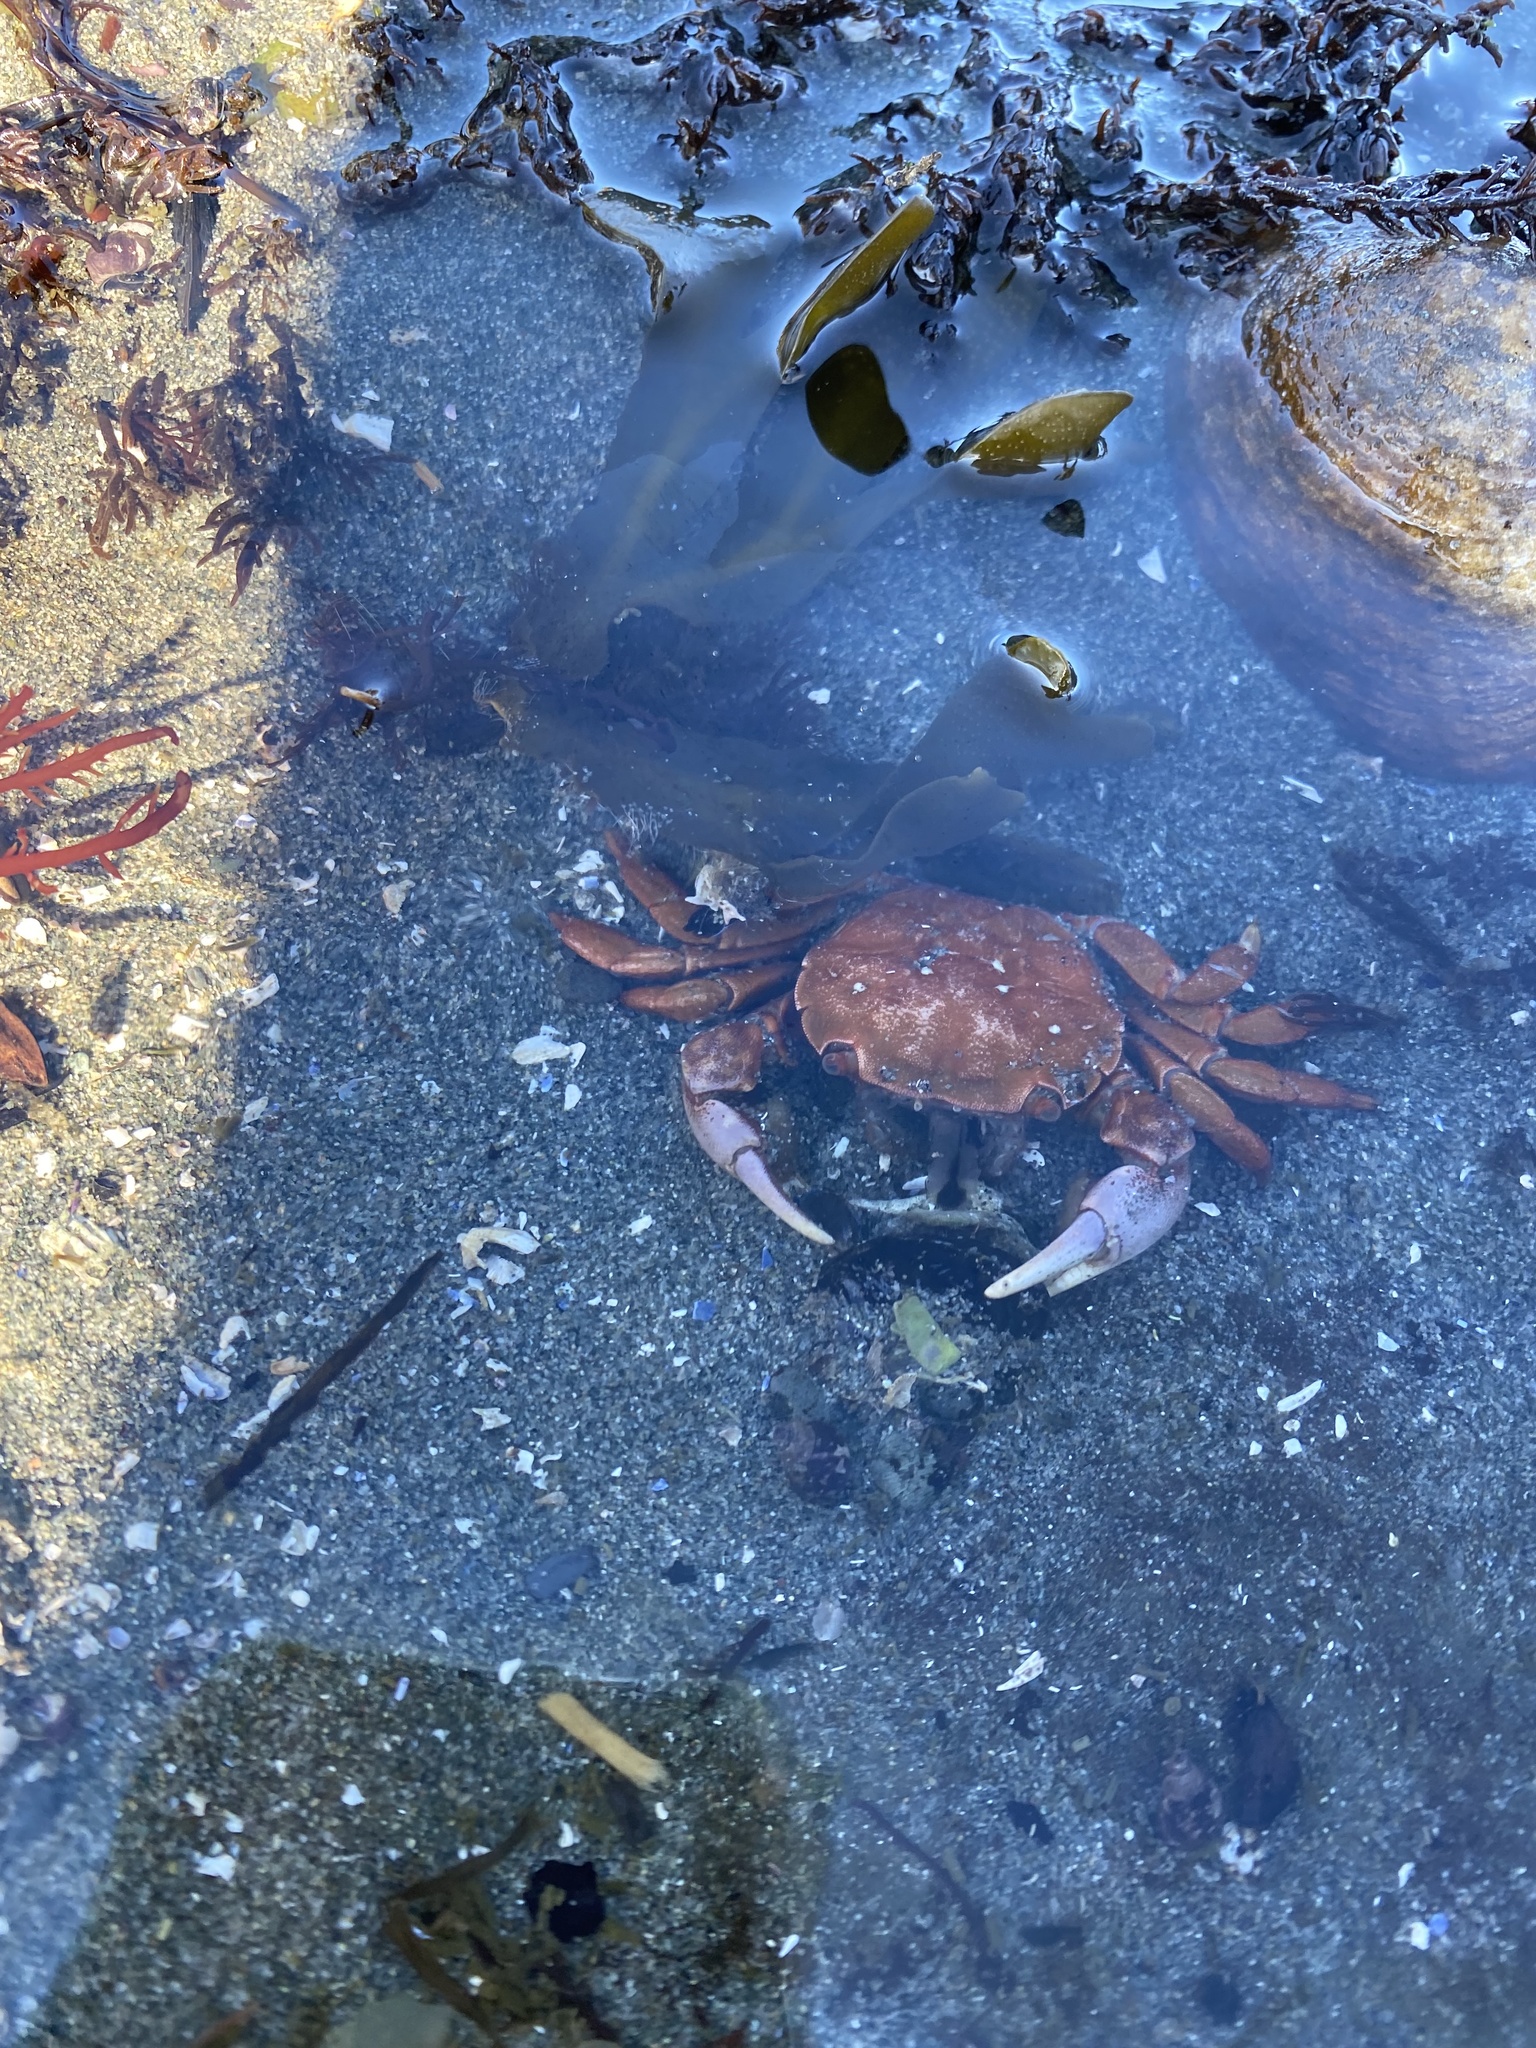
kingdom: Animalia
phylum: Arthropoda
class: Malacostraca
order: Decapoda
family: Varunidae
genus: Hemigrapsus
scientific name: Hemigrapsus nudus
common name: Purple shore crab
